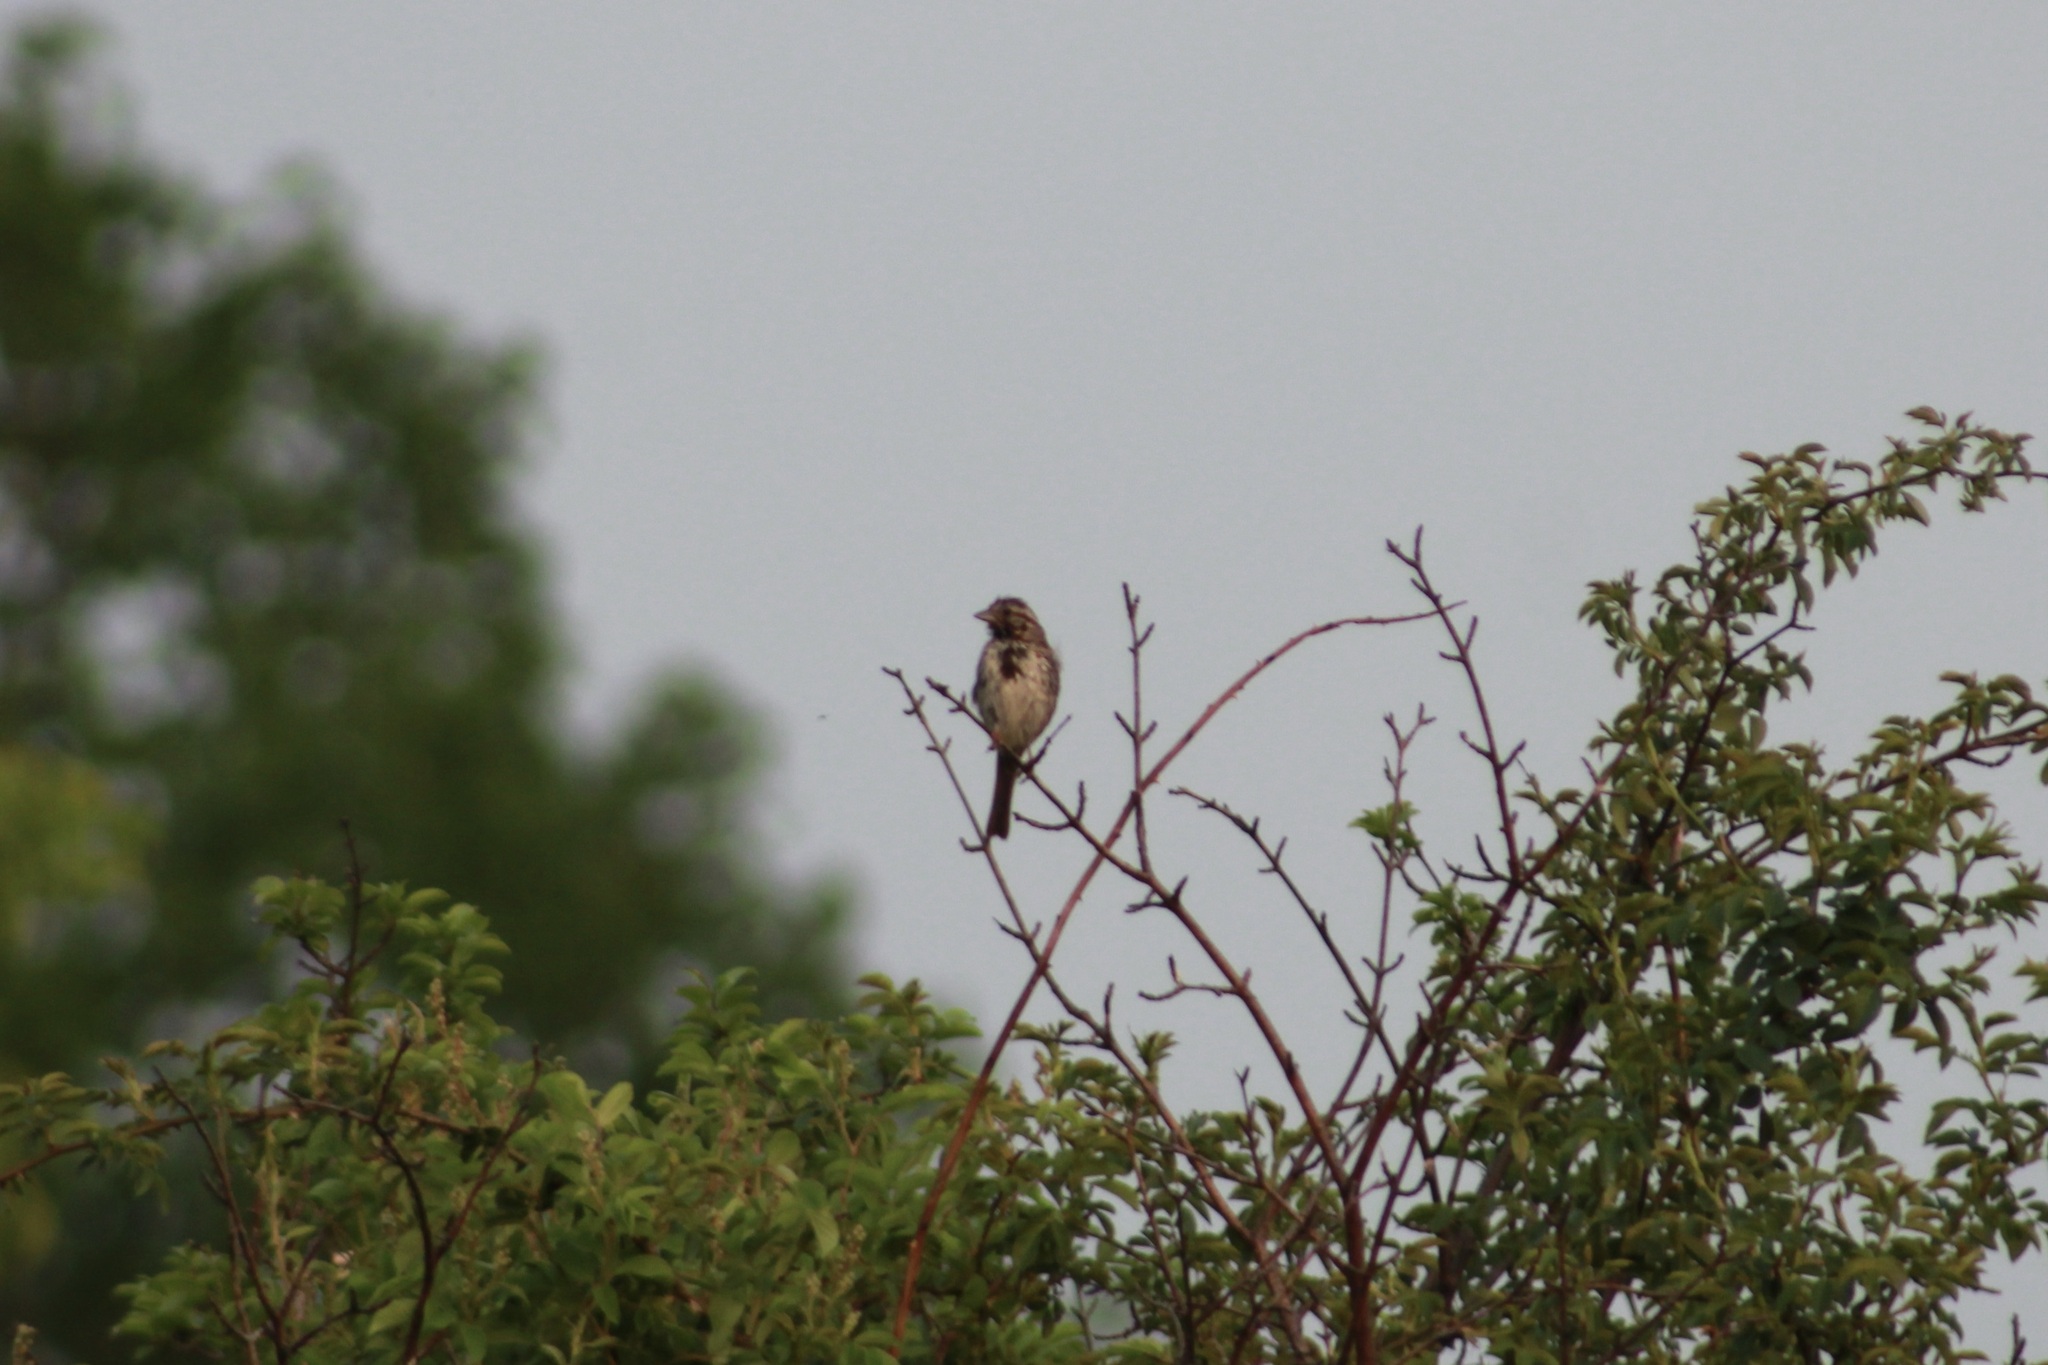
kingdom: Animalia
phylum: Chordata
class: Aves
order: Passeriformes
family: Passerellidae
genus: Melospiza
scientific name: Melospiza melodia
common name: Song sparrow
